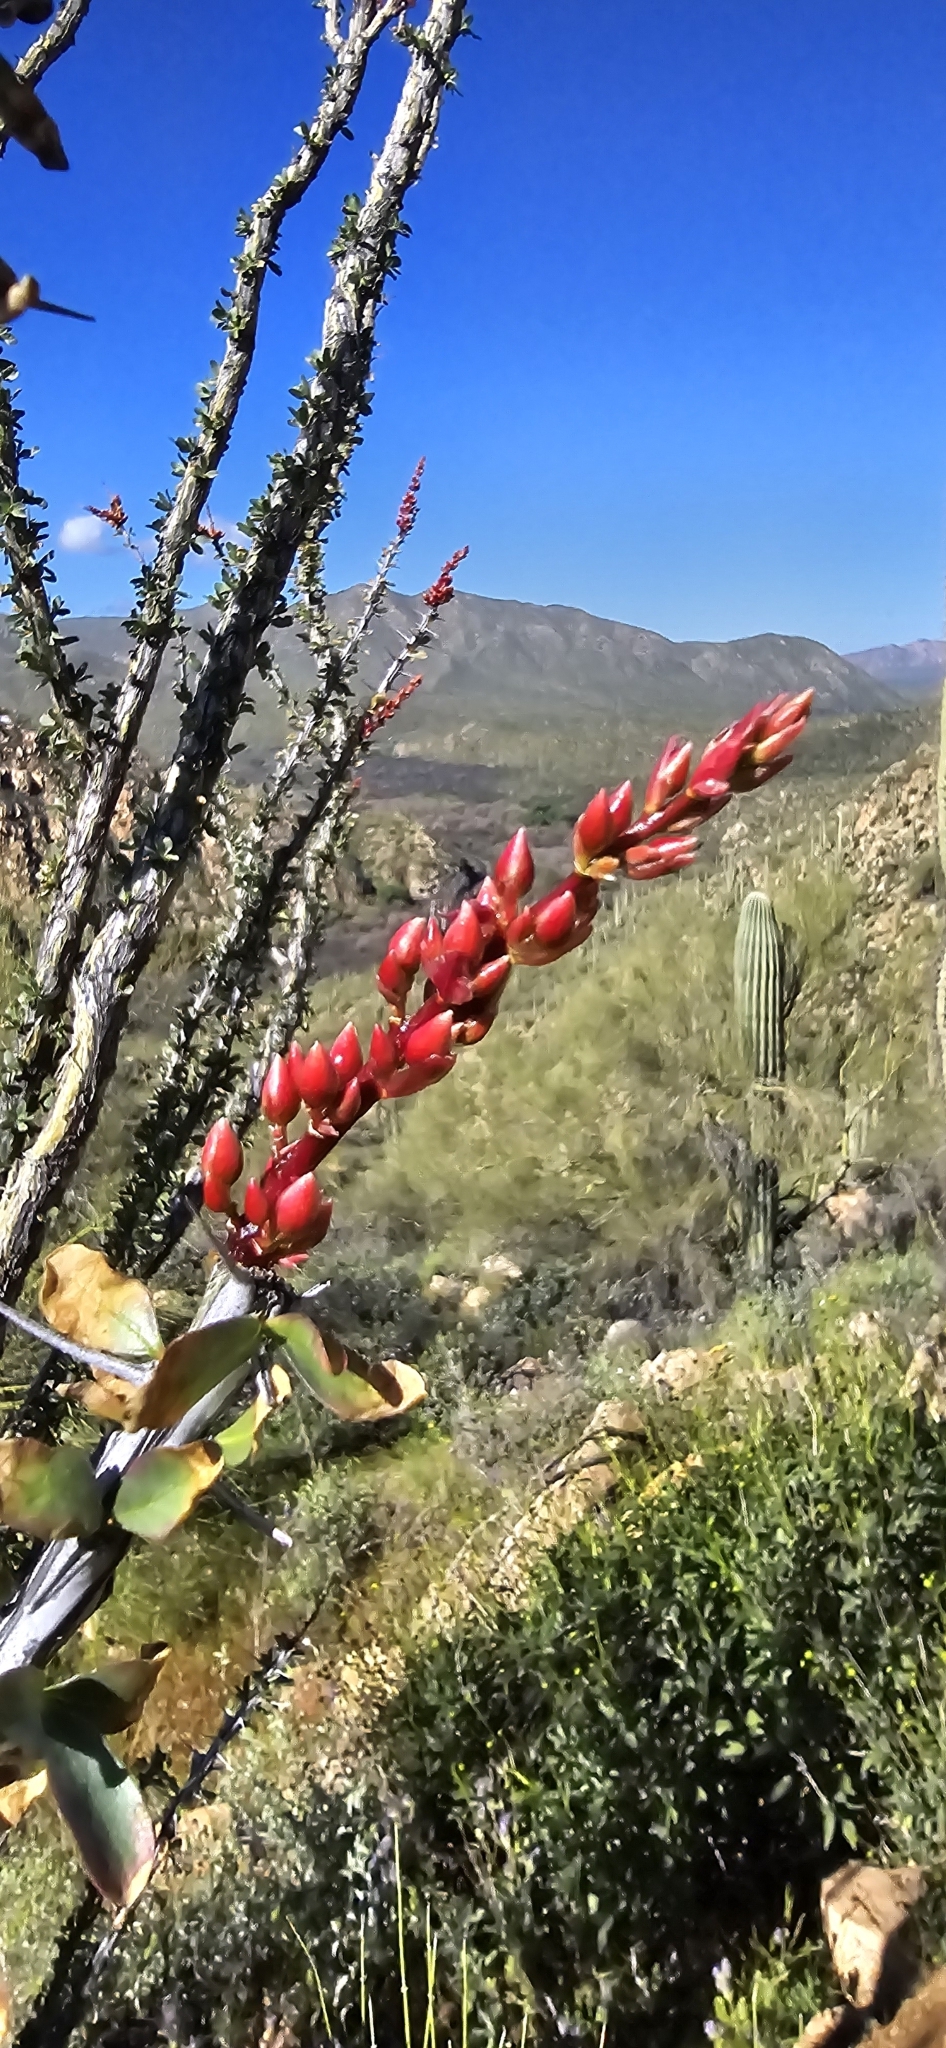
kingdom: Plantae
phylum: Tracheophyta
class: Magnoliopsida
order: Ericales
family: Fouquieriaceae
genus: Fouquieria
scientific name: Fouquieria splendens
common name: Vine-cactus
